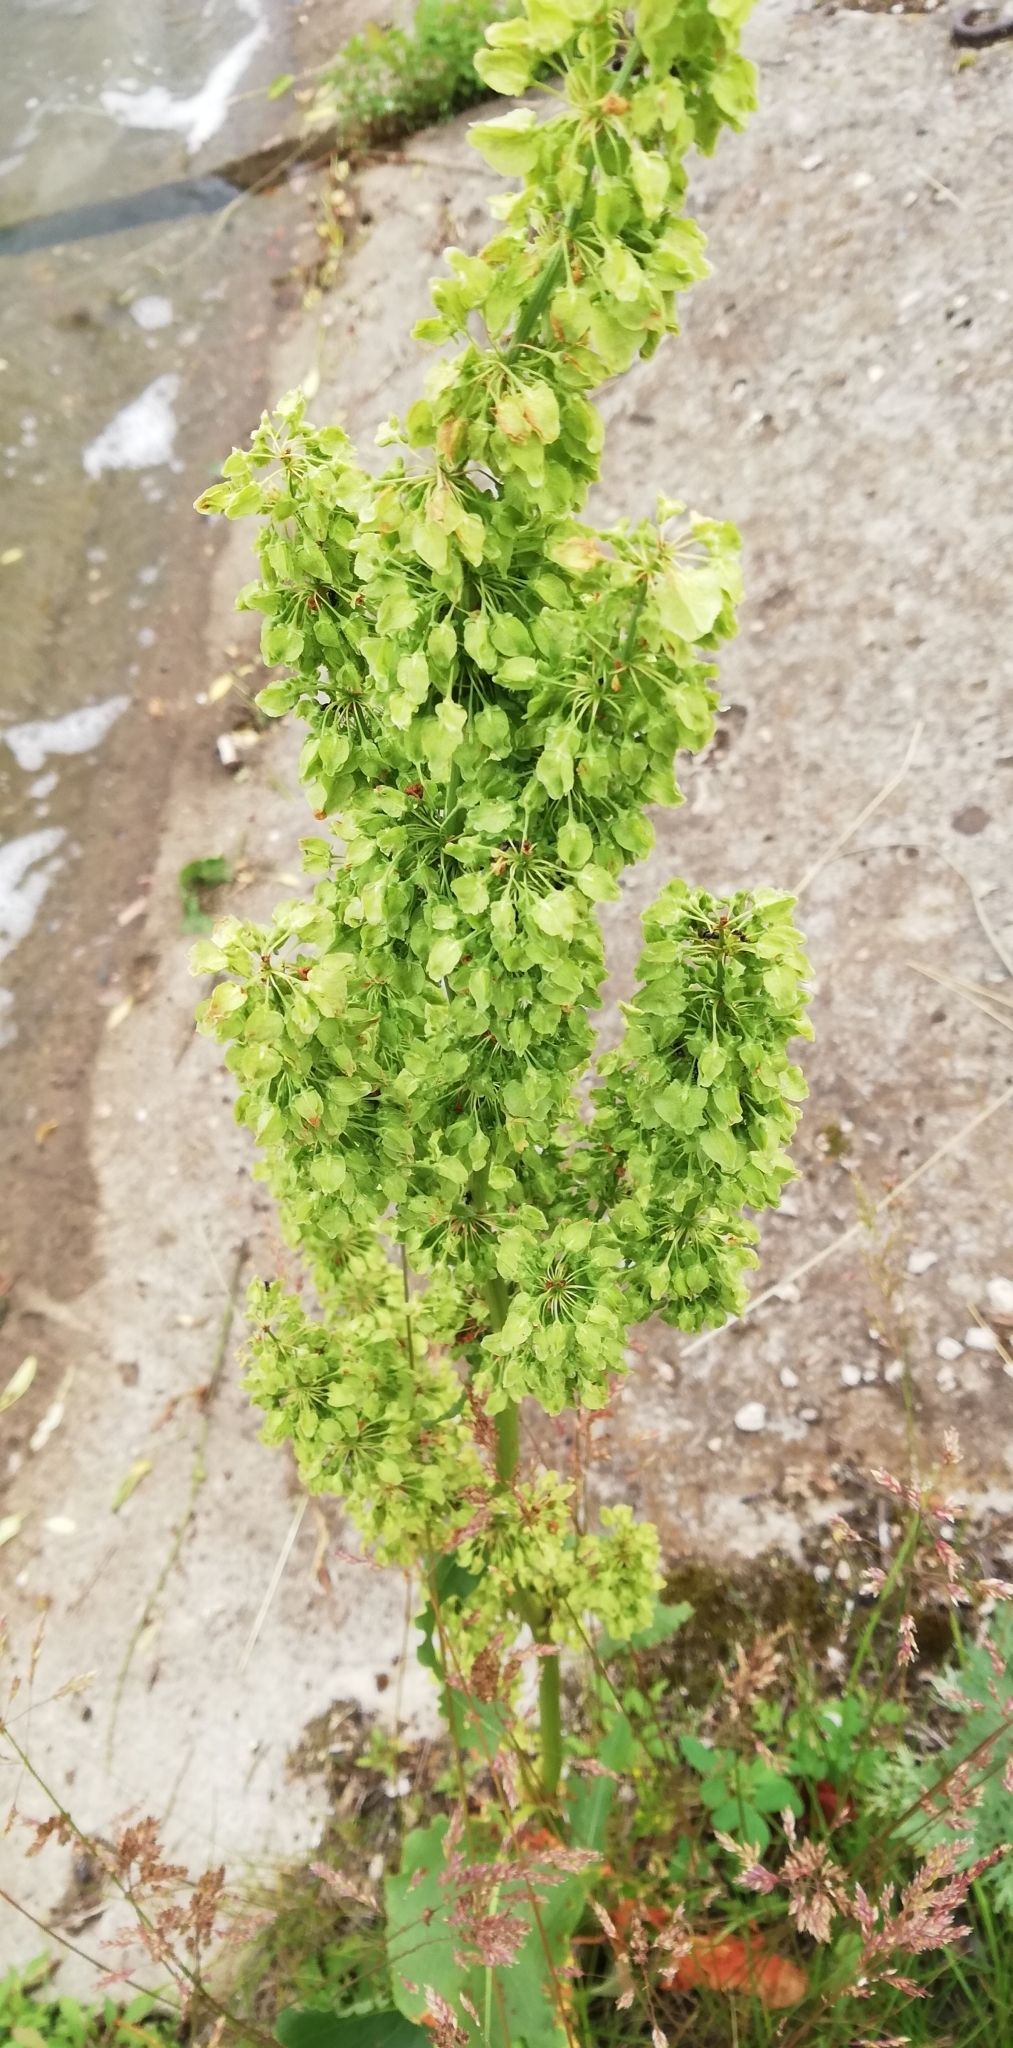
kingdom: Plantae
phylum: Tracheophyta
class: Magnoliopsida
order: Caryophyllales
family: Polygonaceae
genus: Rumex
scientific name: Rumex confertus
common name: Russian dock
